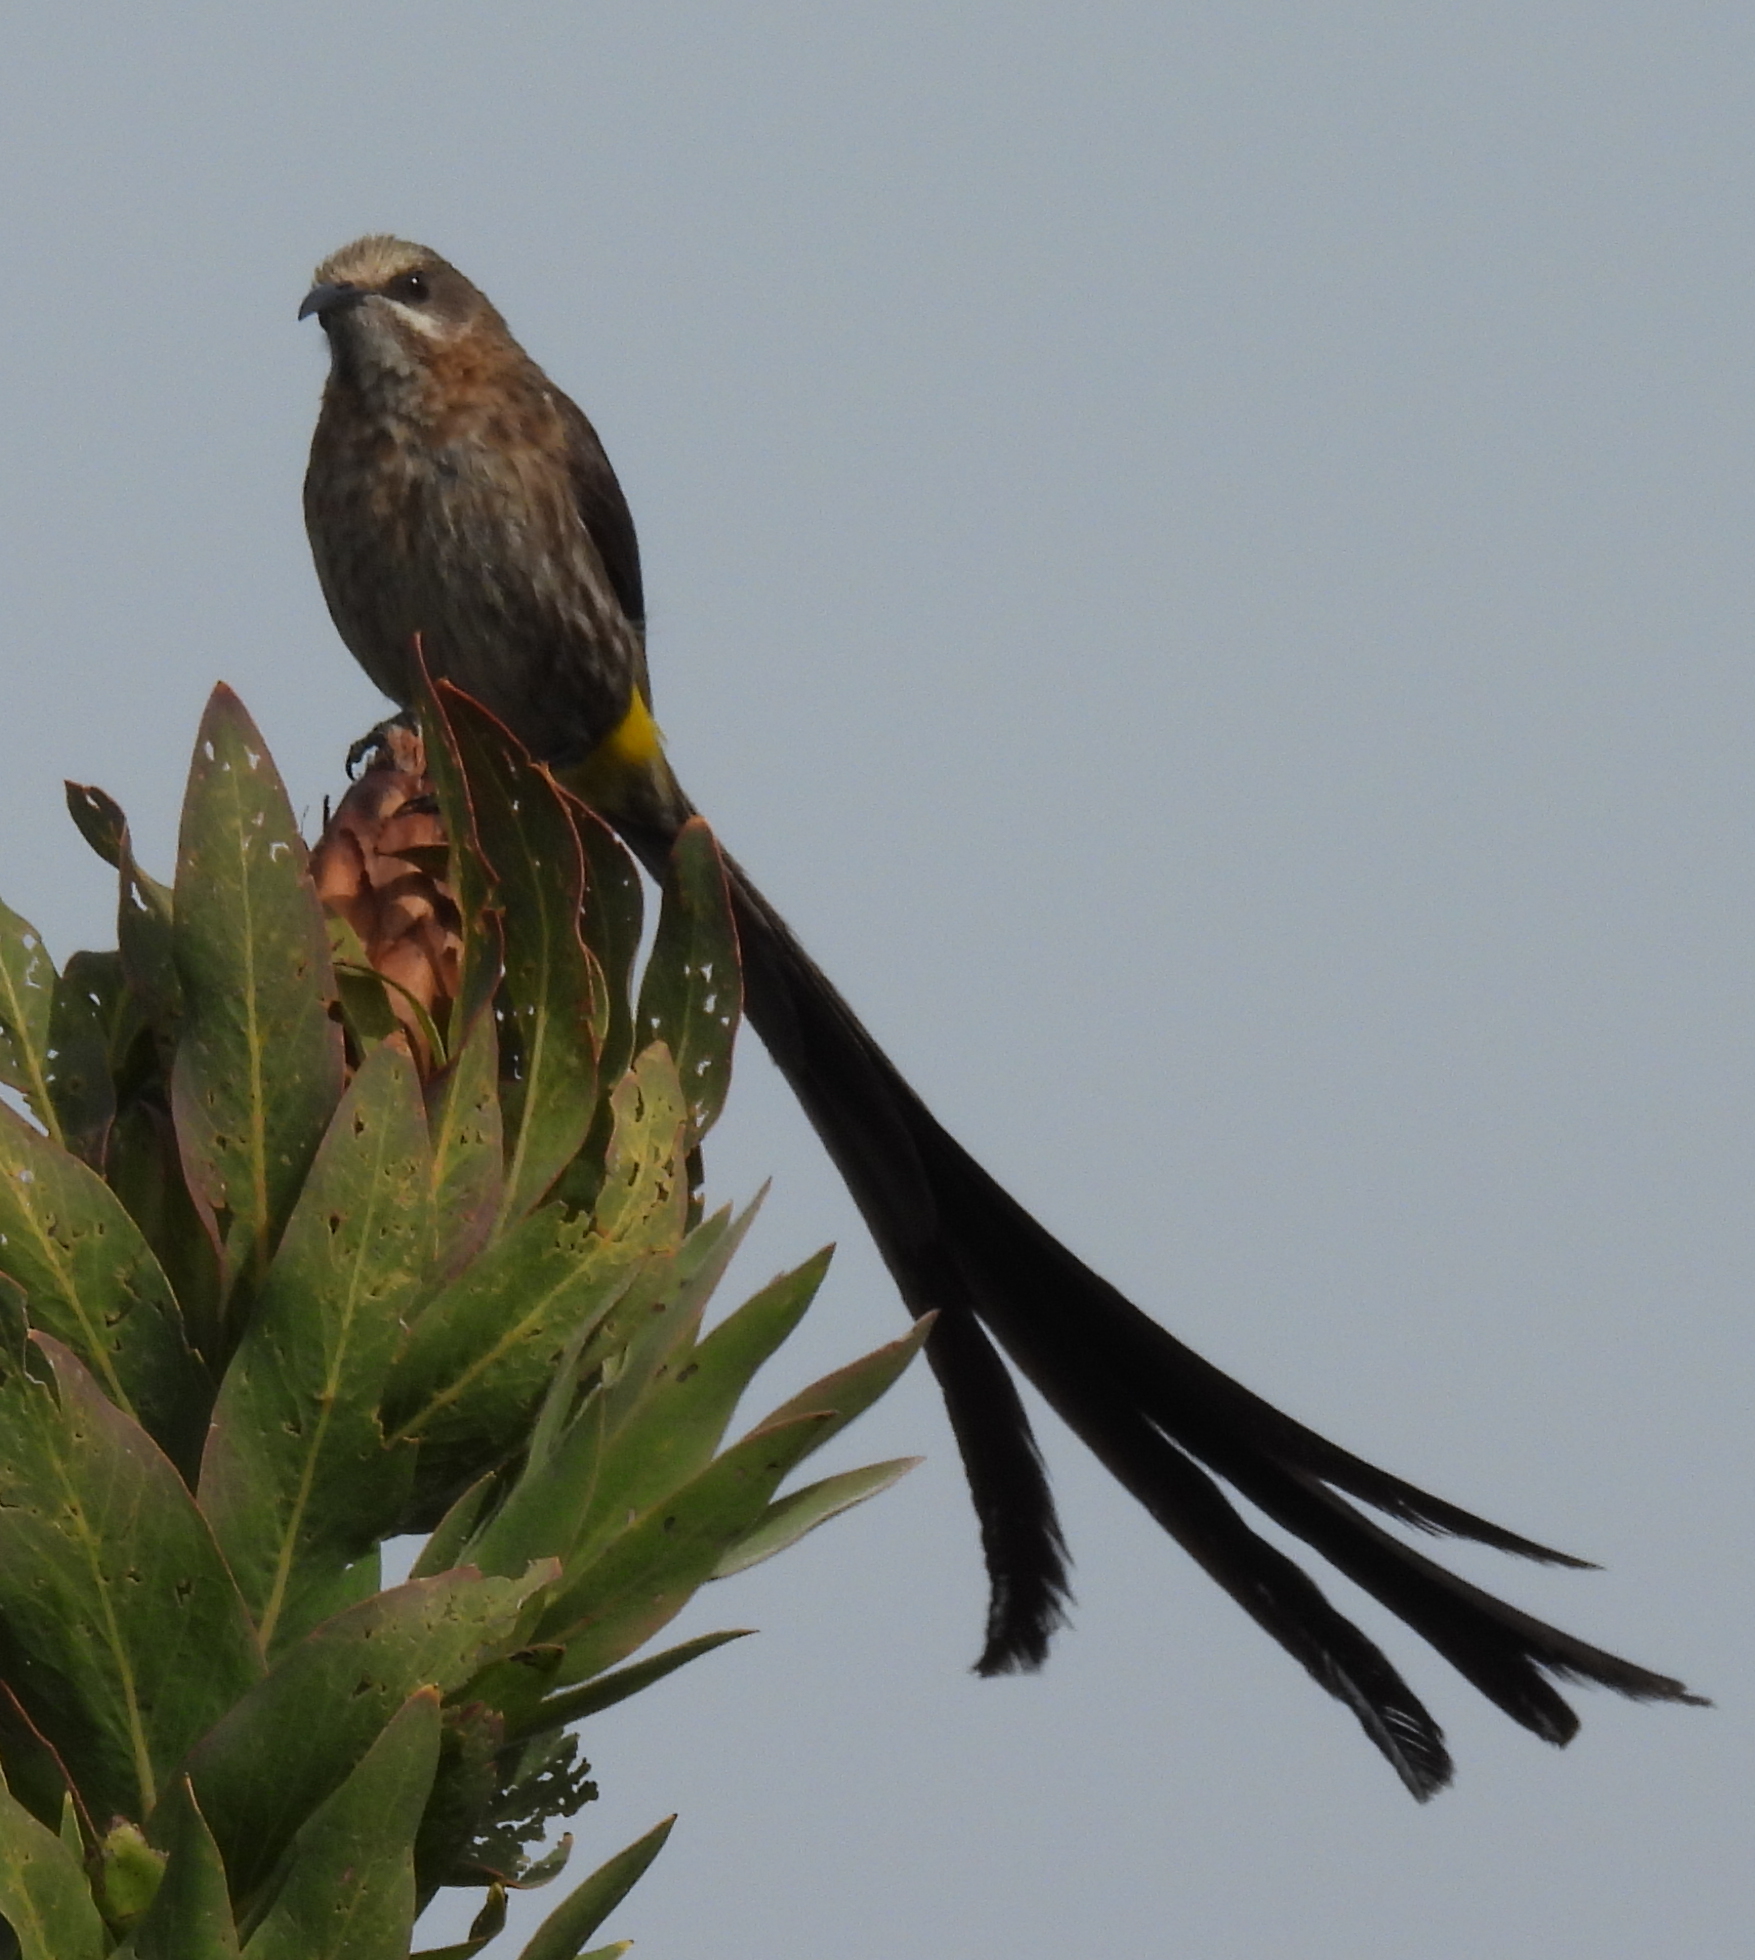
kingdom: Animalia
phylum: Chordata
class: Aves
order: Passeriformes
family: Promeropidae
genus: Promerops
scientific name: Promerops cafer
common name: Cape sugarbird
